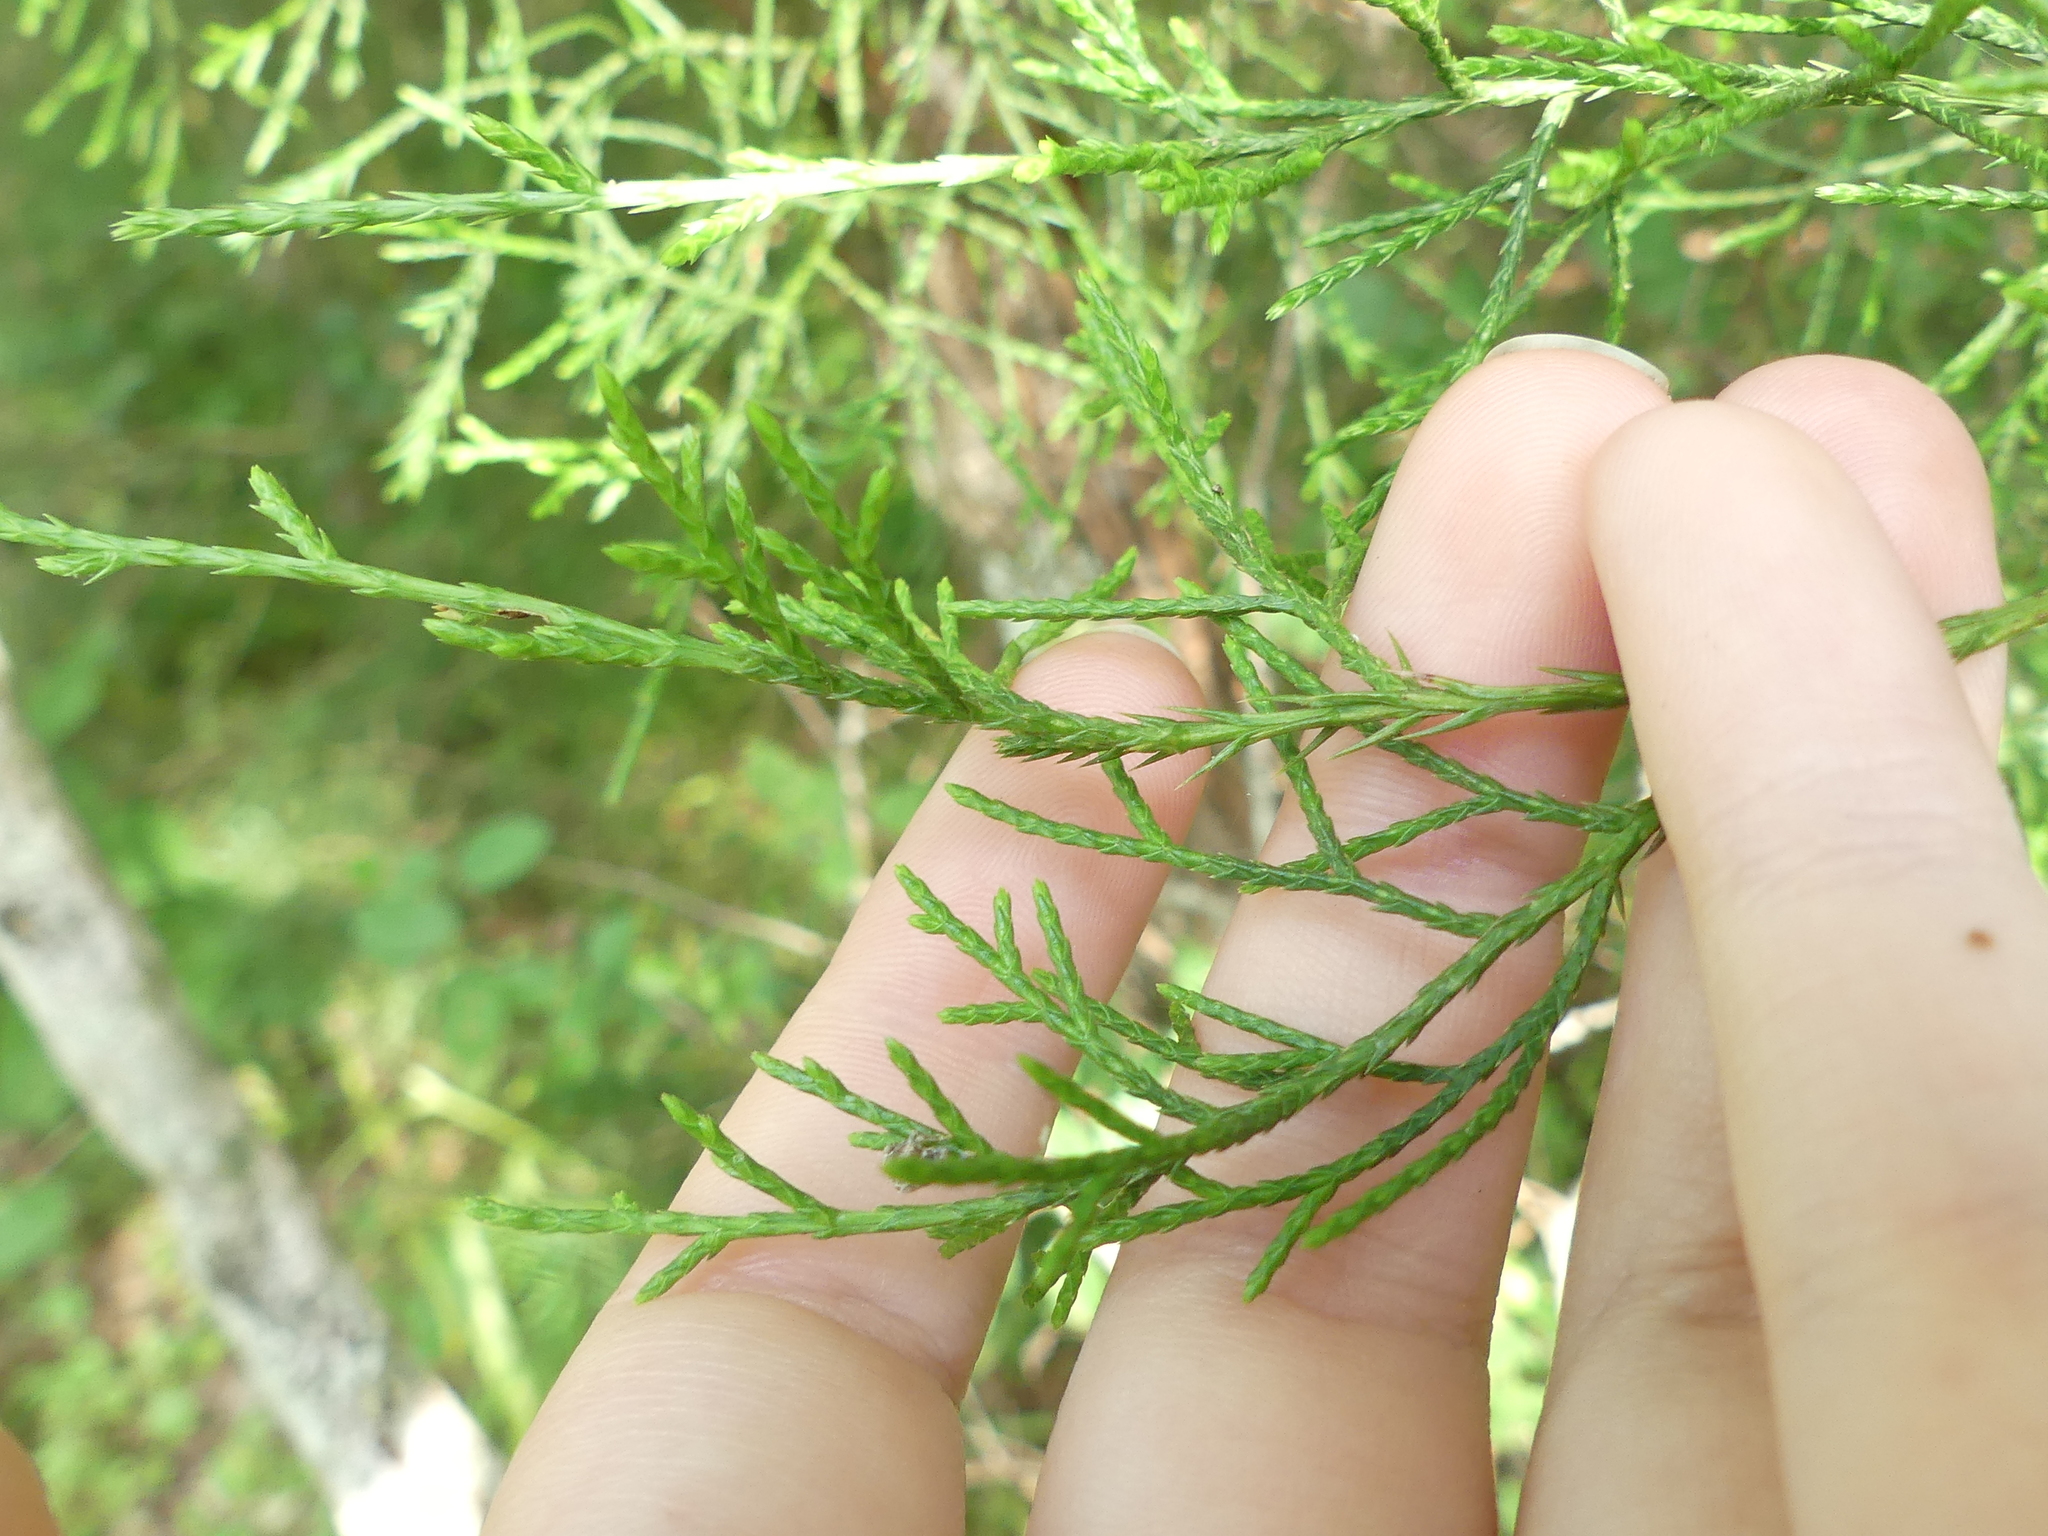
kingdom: Plantae
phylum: Tracheophyta
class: Pinopsida
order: Pinales
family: Cupressaceae
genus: Juniperus
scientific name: Juniperus virginiana
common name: Red juniper
